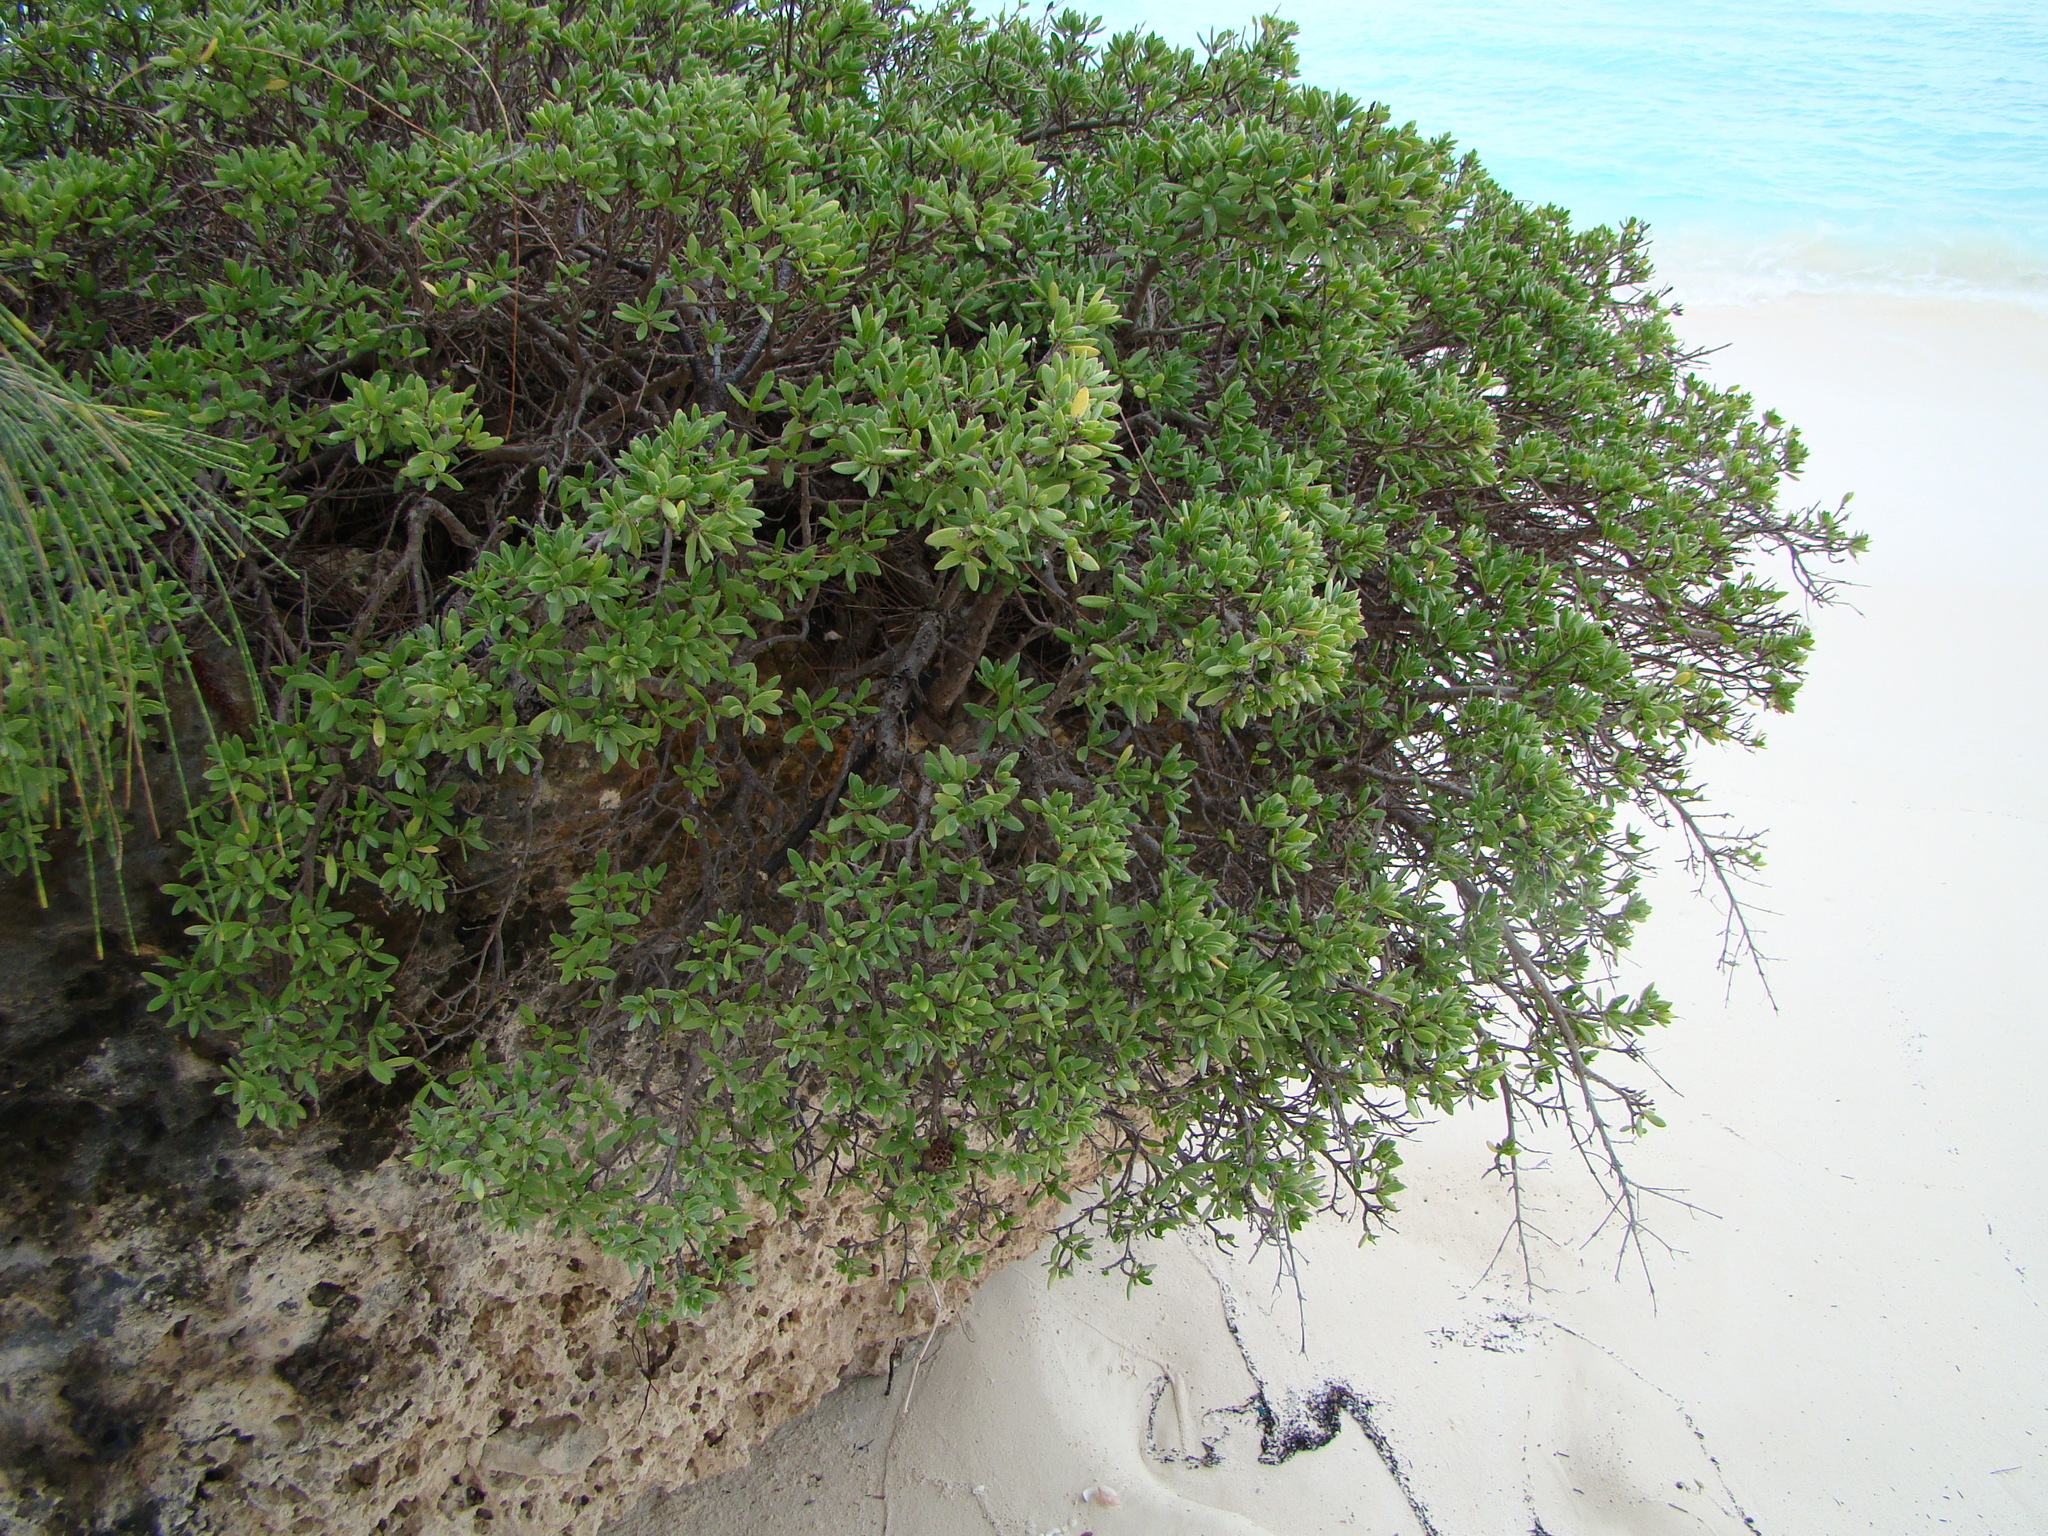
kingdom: Plantae
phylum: Tracheophyta
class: Magnoliopsida
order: Myrtales
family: Lythraceae
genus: Pemphis
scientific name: Pemphis acidula
